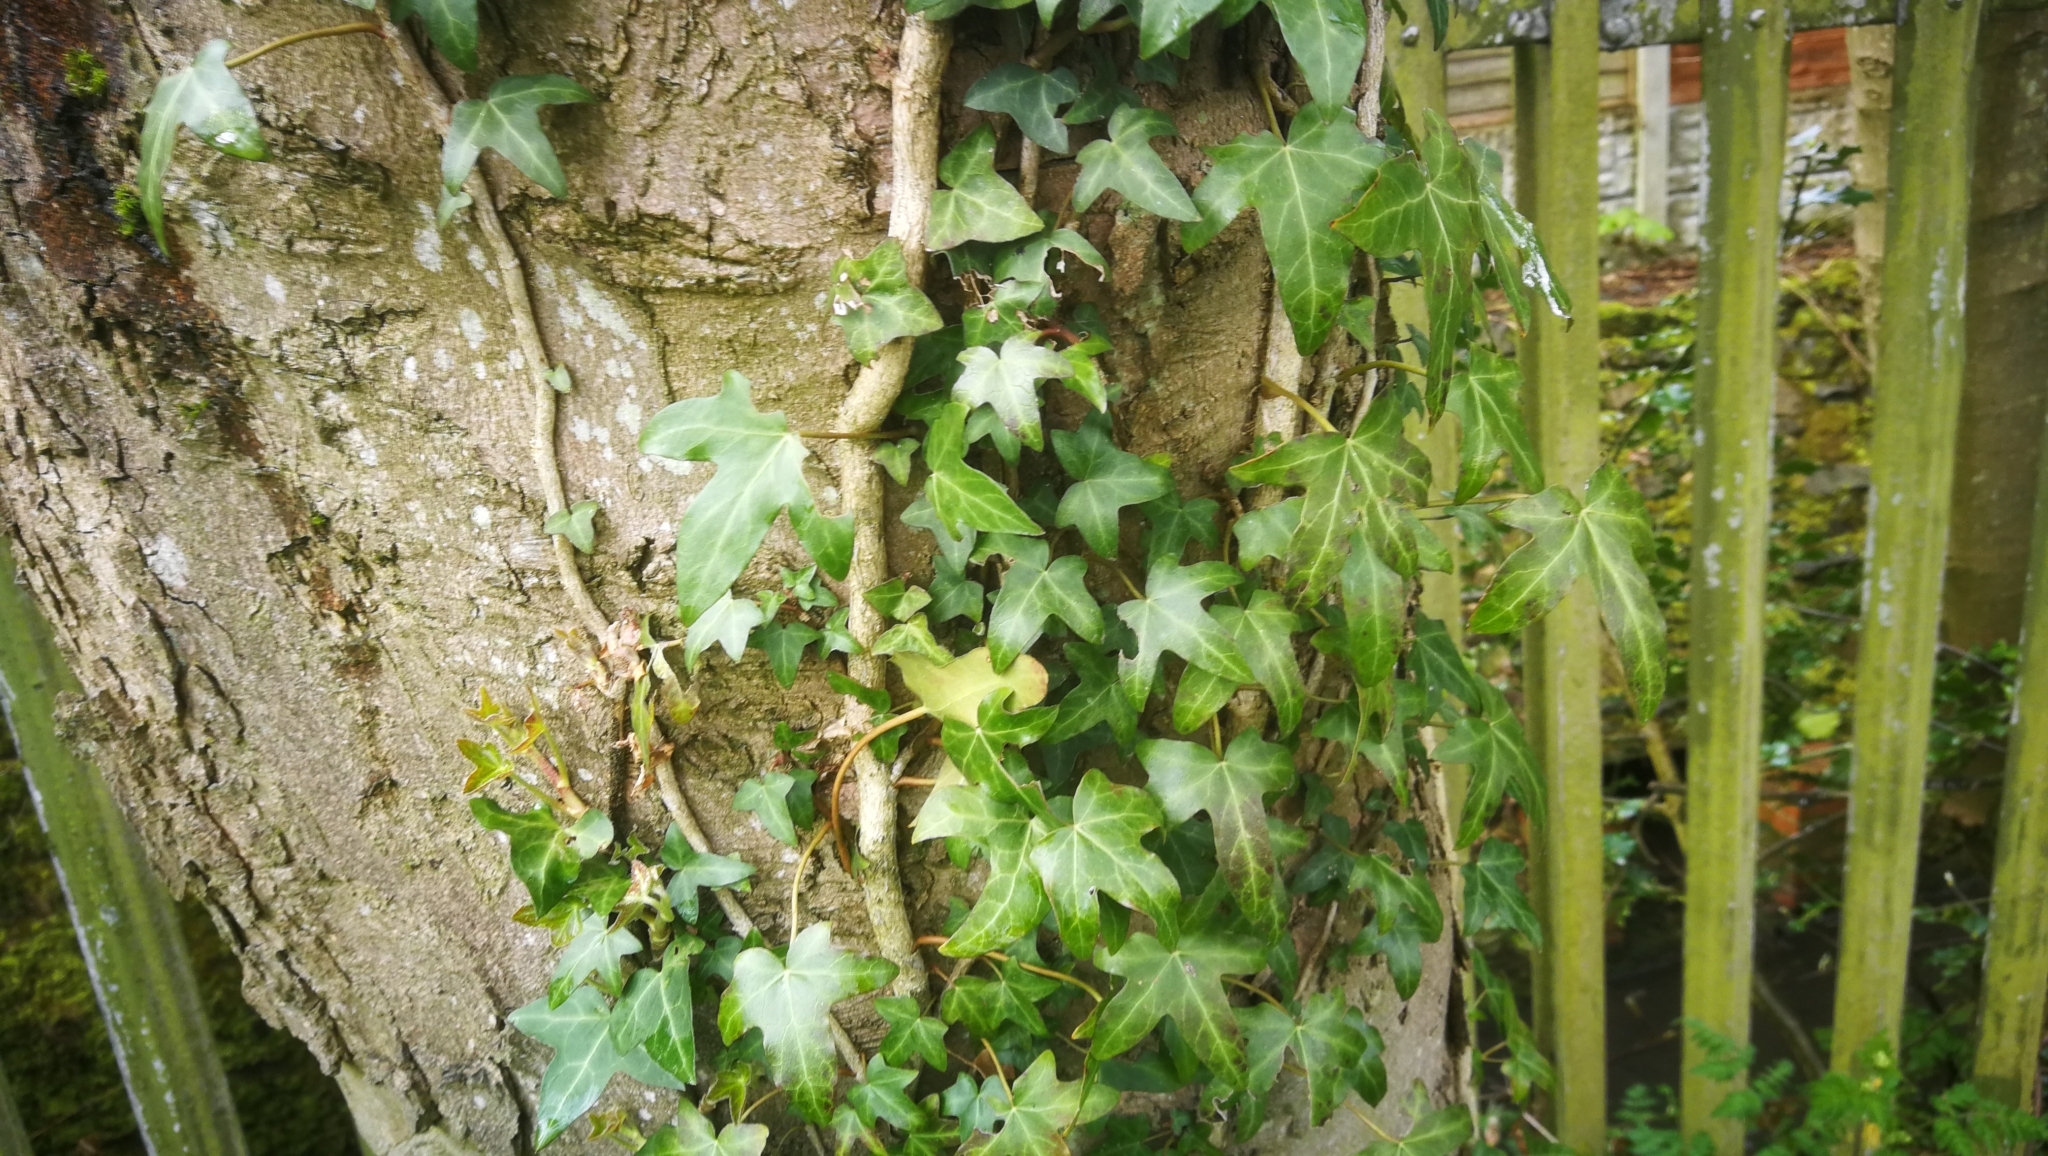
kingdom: Plantae
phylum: Tracheophyta
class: Magnoliopsida
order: Apiales
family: Araliaceae
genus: Hedera
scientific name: Hedera helix
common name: Ivy
